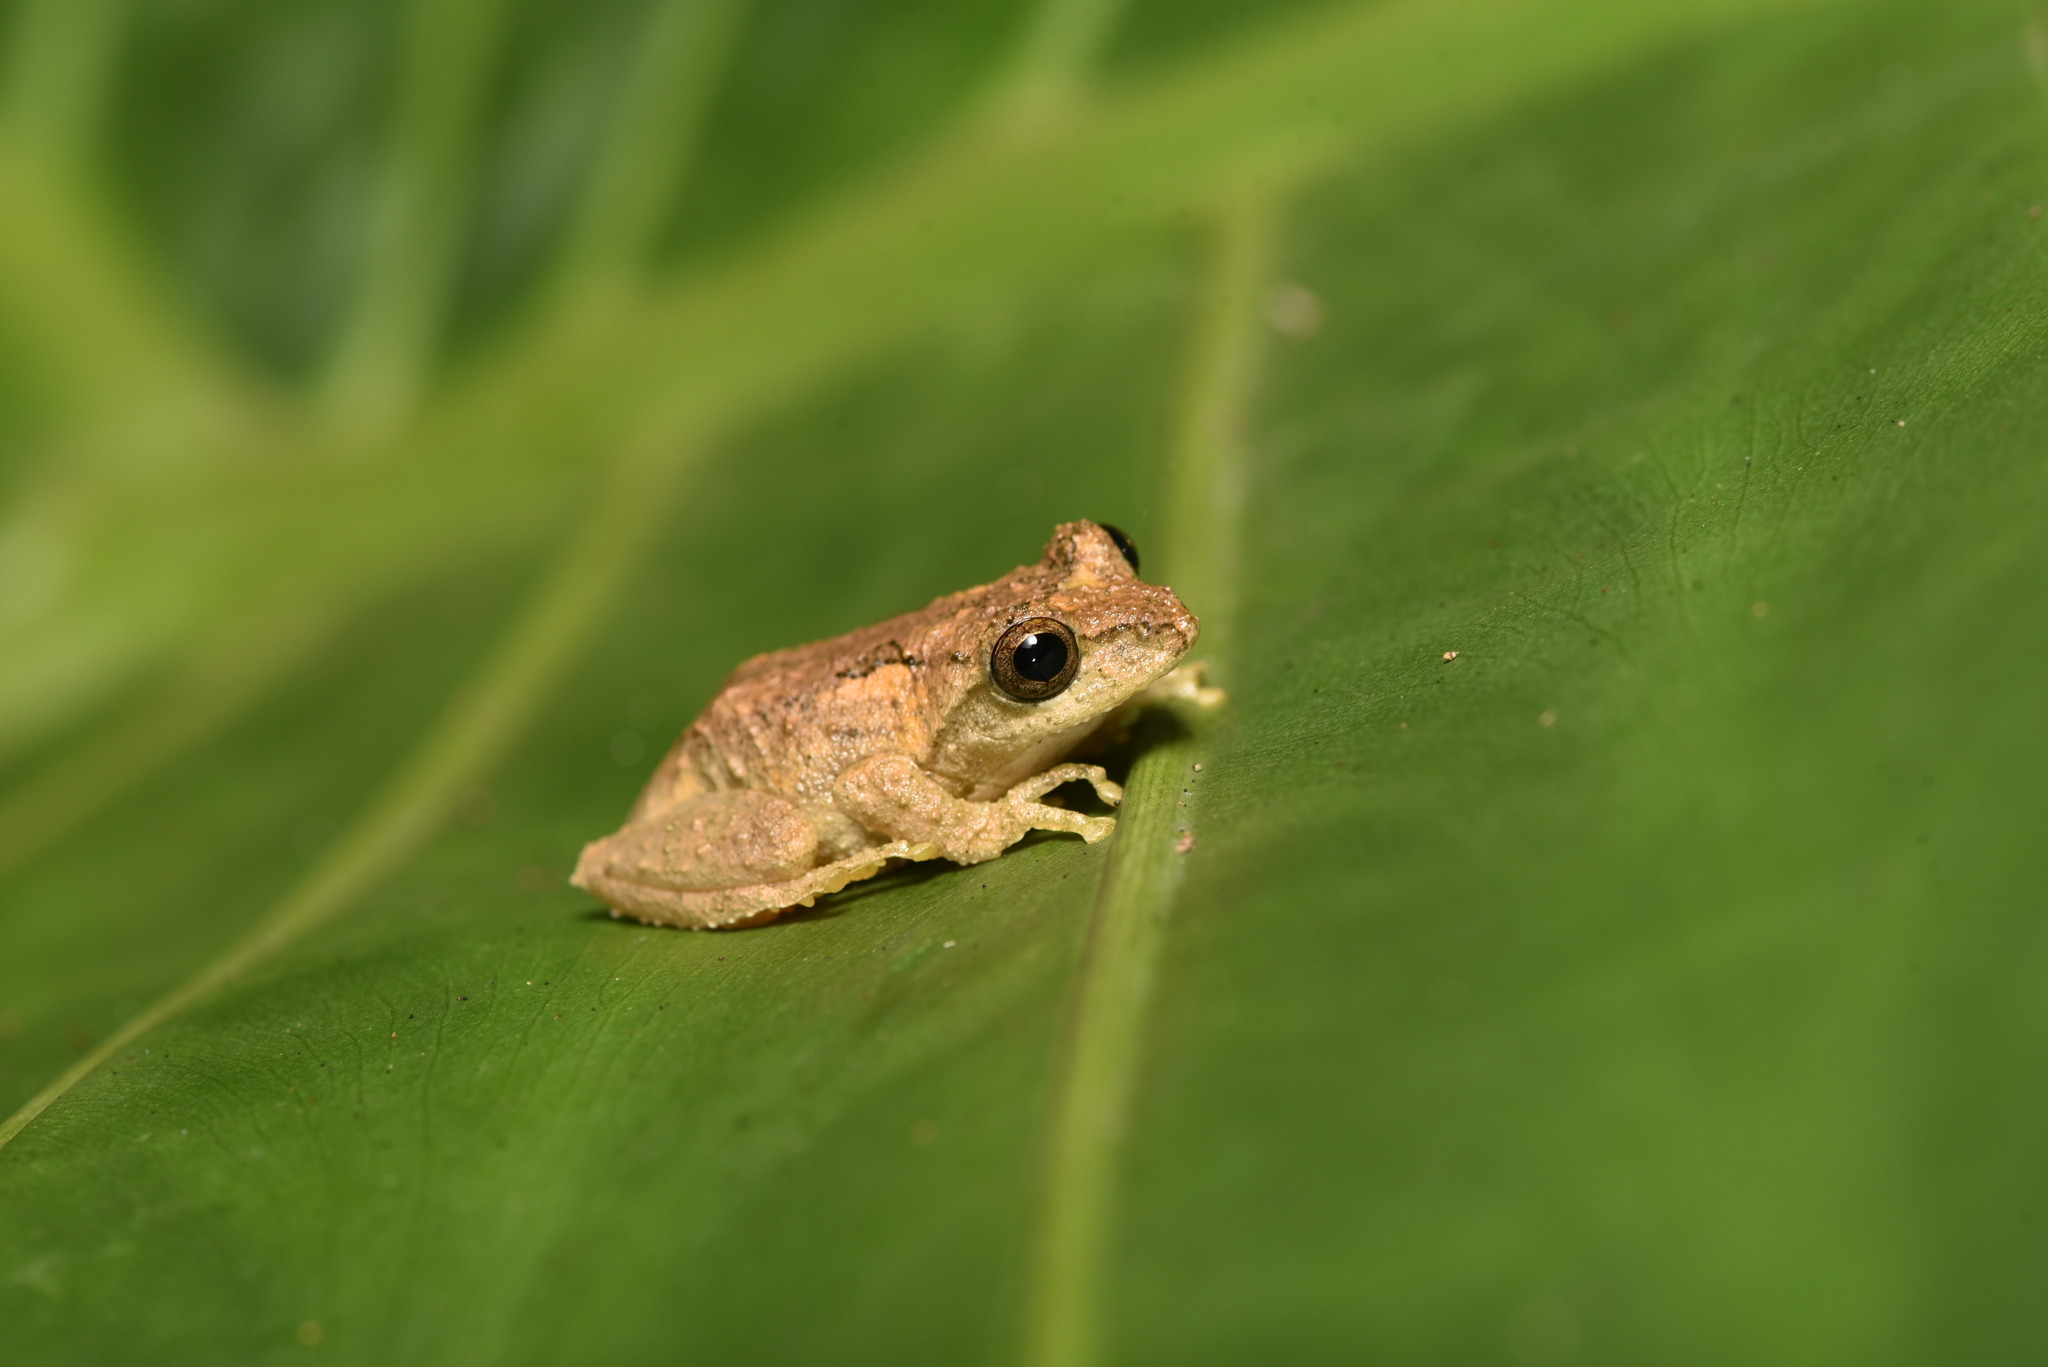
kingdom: Animalia
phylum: Chordata
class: Amphibia
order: Anura
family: Rhacophoridae
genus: Kurixalus
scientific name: Kurixalus idiootocus
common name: Temple treefrog
